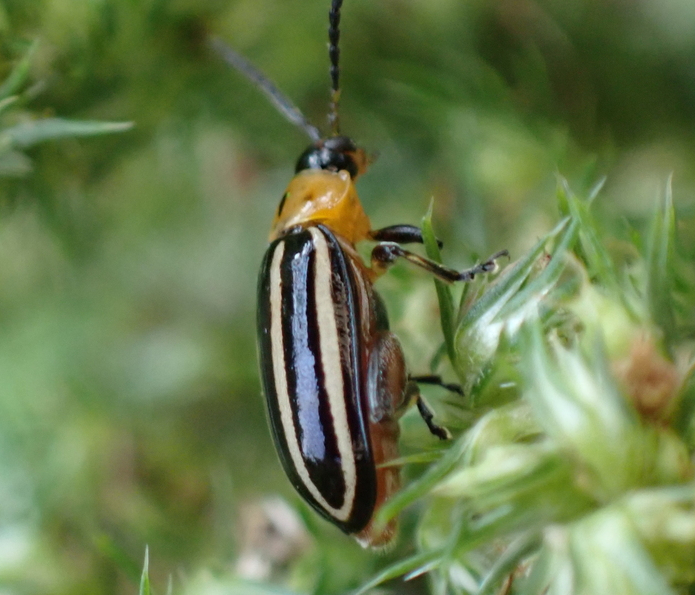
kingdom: Animalia
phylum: Arthropoda
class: Insecta
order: Coleoptera
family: Chrysomelidae
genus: Disonycha
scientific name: Disonycha glabrata
